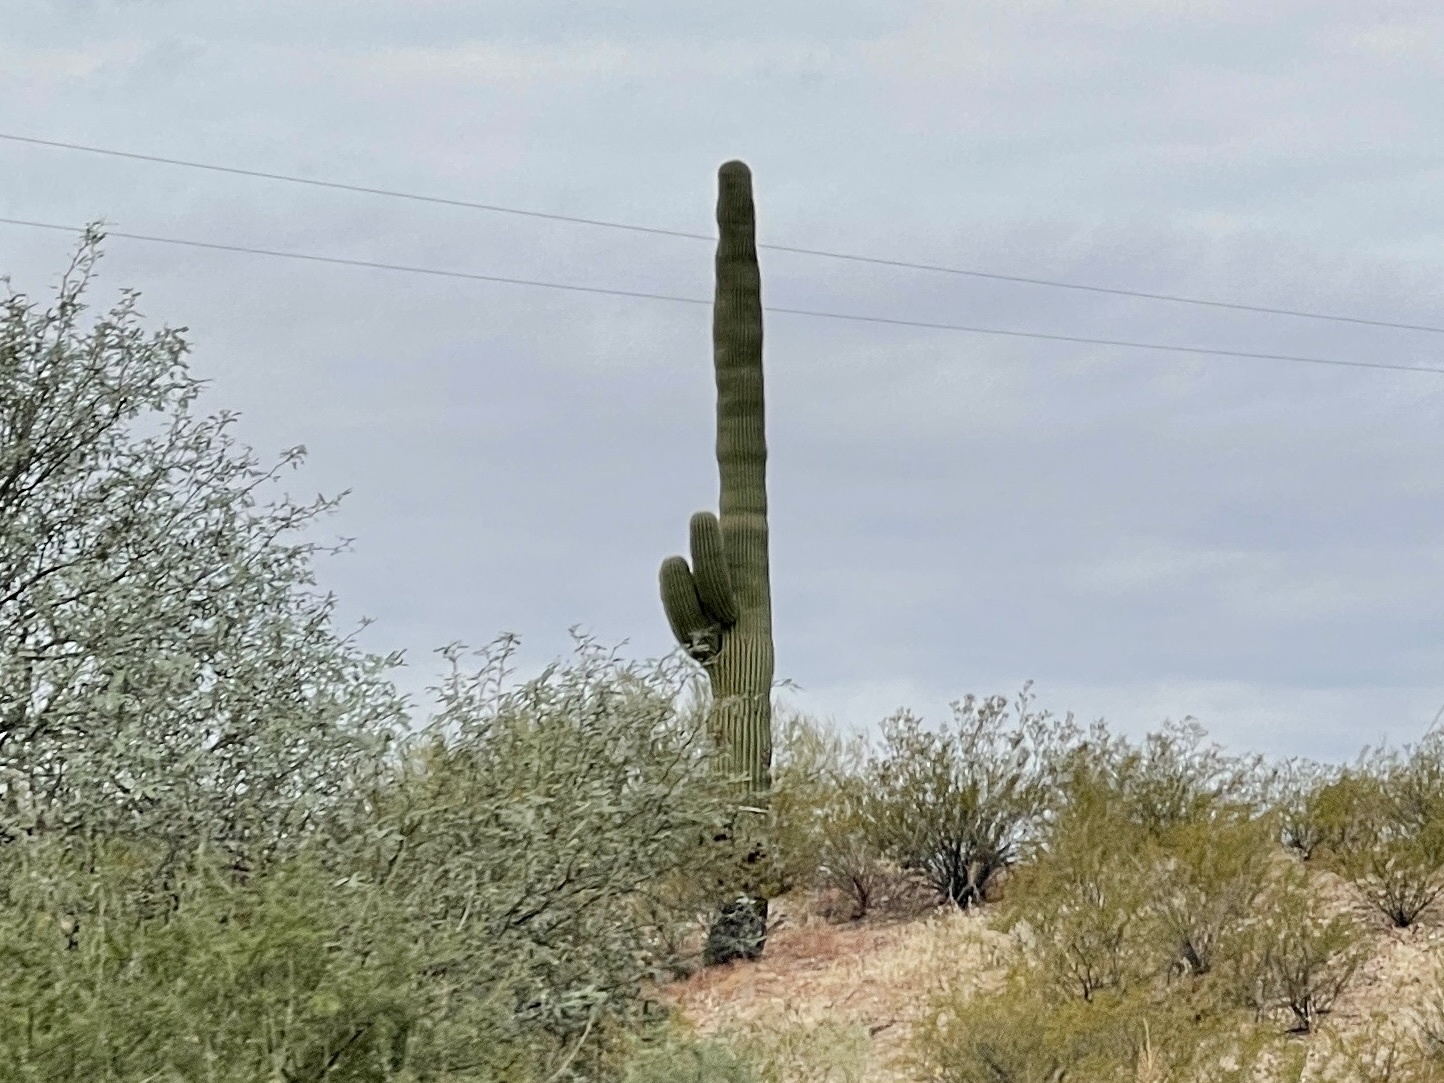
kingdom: Plantae
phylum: Tracheophyta
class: Magnoliopsida
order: Caryophyllales
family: Cactaceae
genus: Carnegiea
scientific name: Carnegiea gigantea
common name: Saguaro
